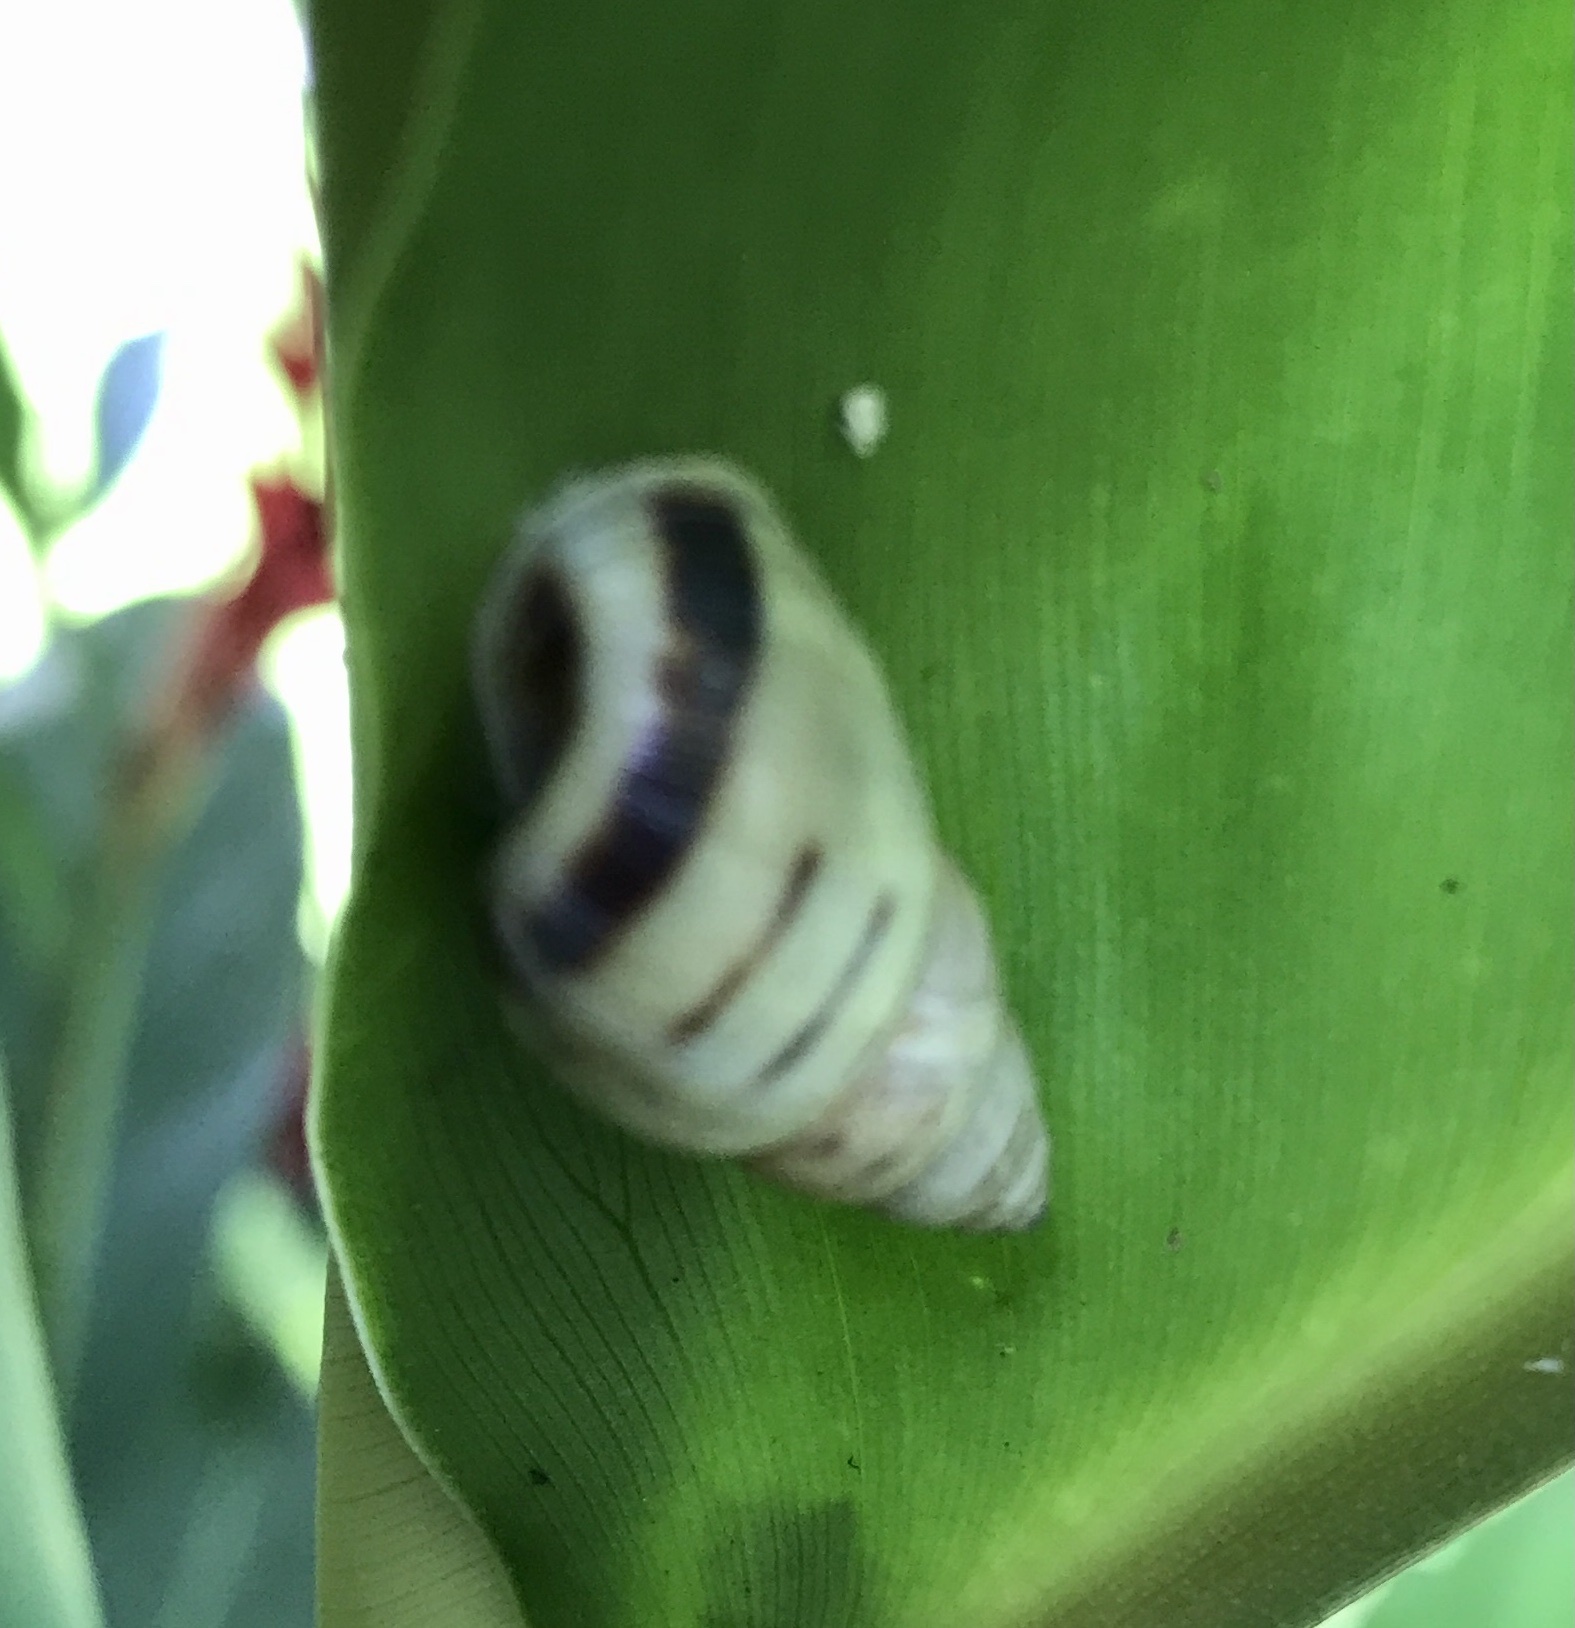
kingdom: Animalia
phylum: Mollusca
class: Gastropoda
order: Stylommatophora
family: Bulimulidae
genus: Drymaeus
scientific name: Drymaeus
